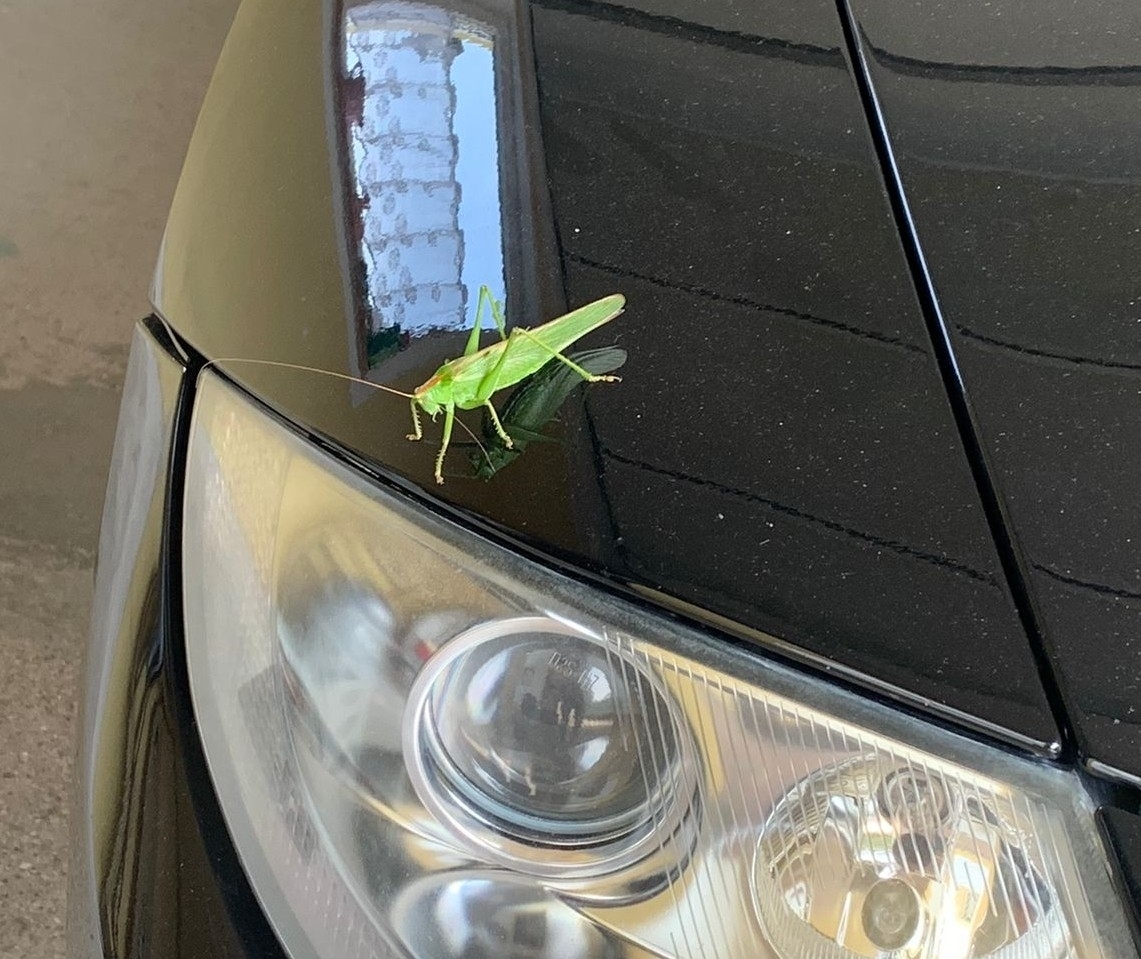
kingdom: Animalia
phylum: Arthropoda
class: Insecta
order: Orthoptera
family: Tettigoniidae
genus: Tettigonia
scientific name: Tettigonia viridissima
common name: Great green bush-cricket
